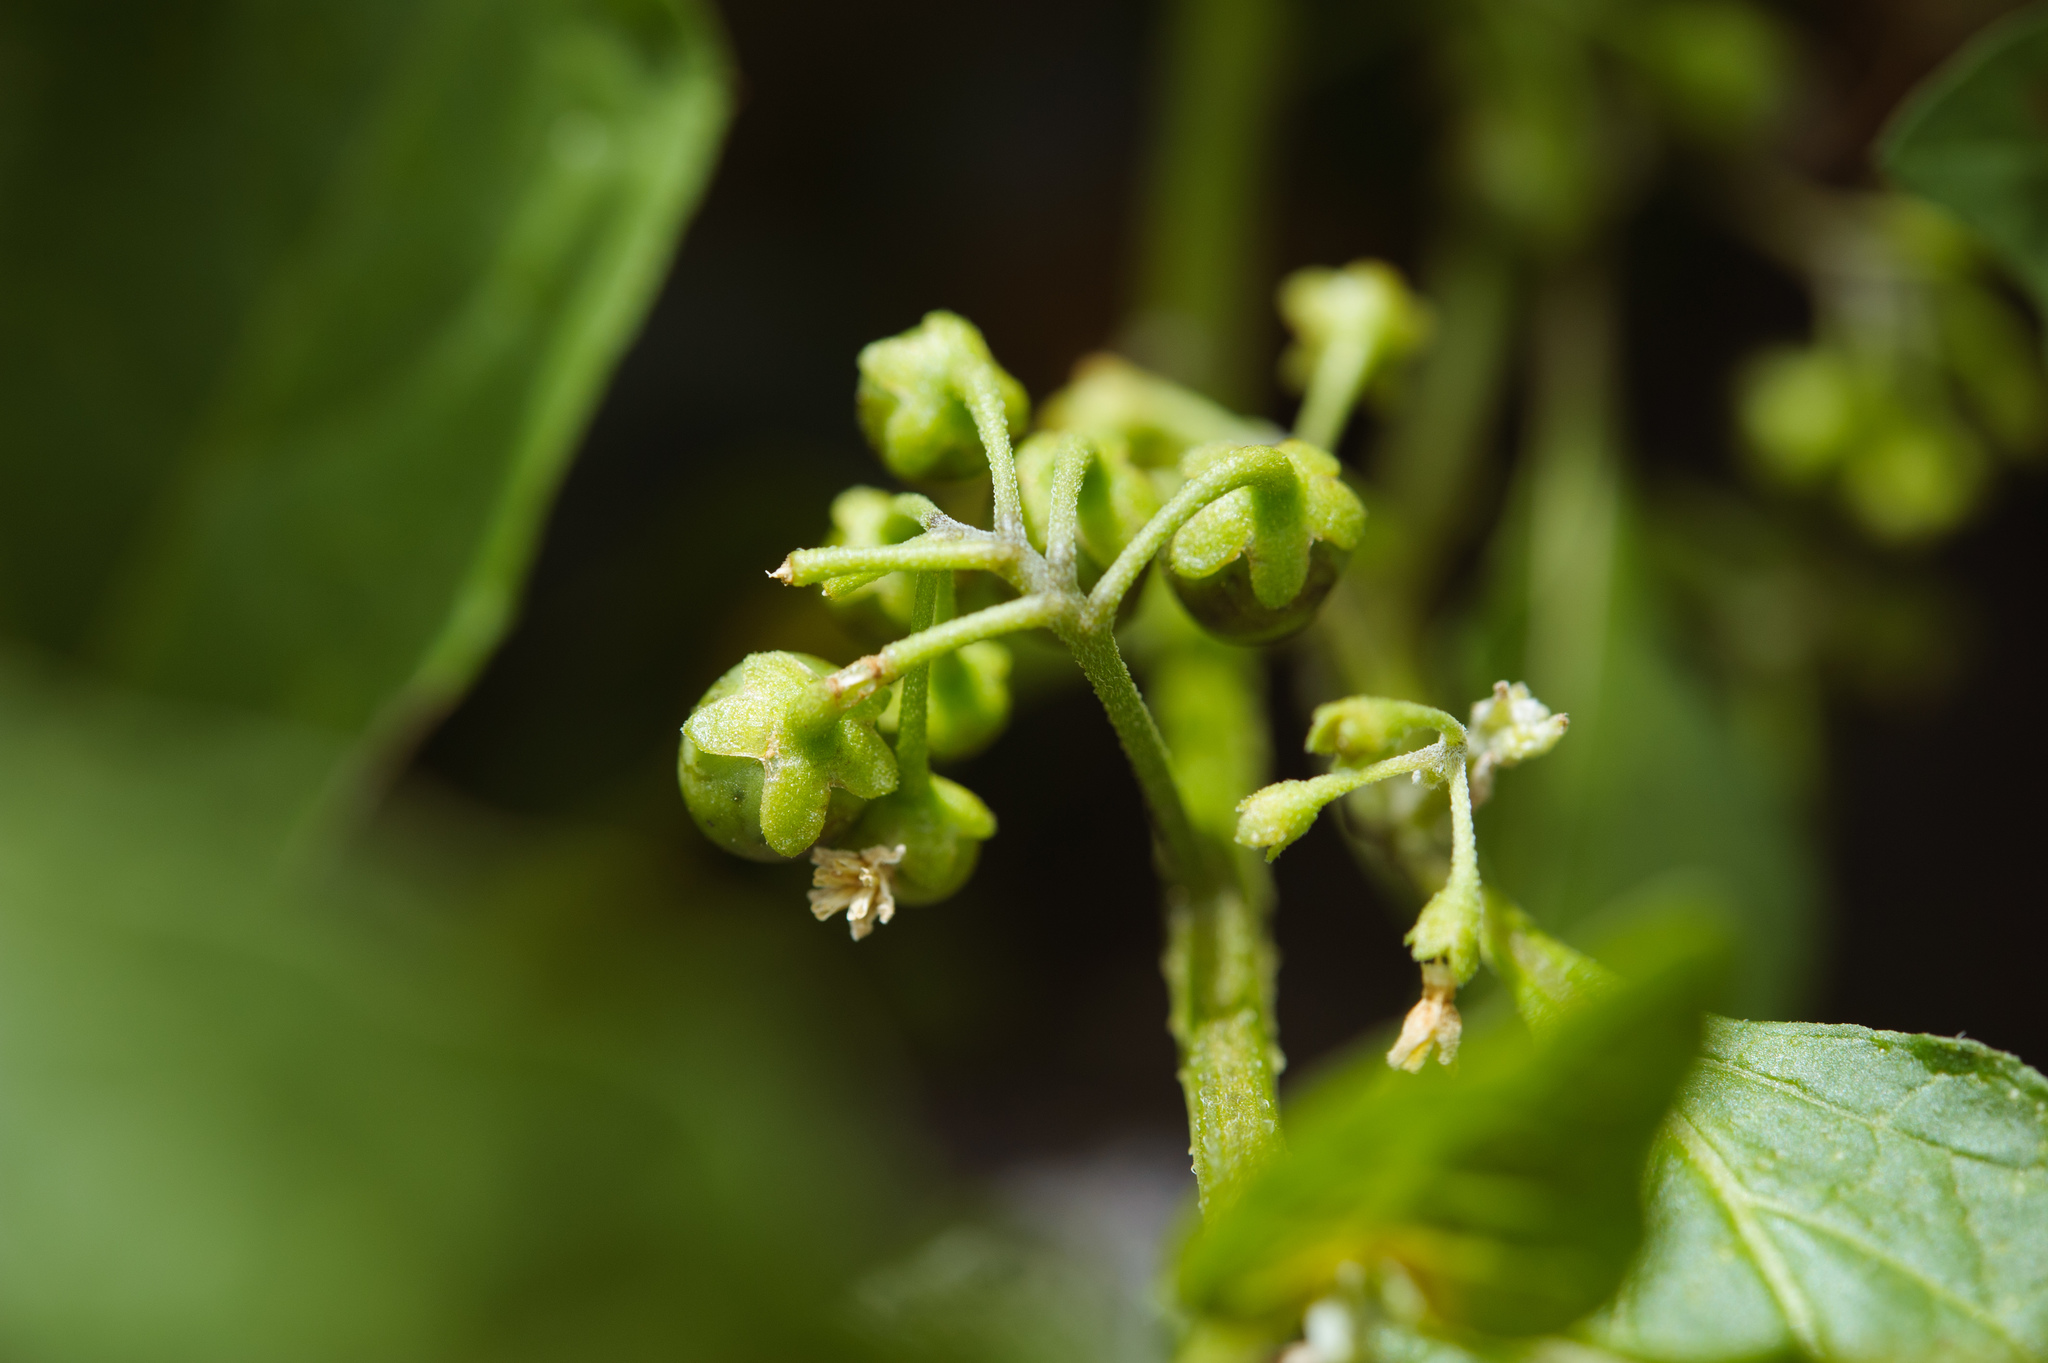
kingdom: Plantae
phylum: Tracheophyta
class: Magnoliopsida
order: Solanales
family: Solanaceae
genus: Solanum
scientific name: Solanum nigrum
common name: Black nightshade
